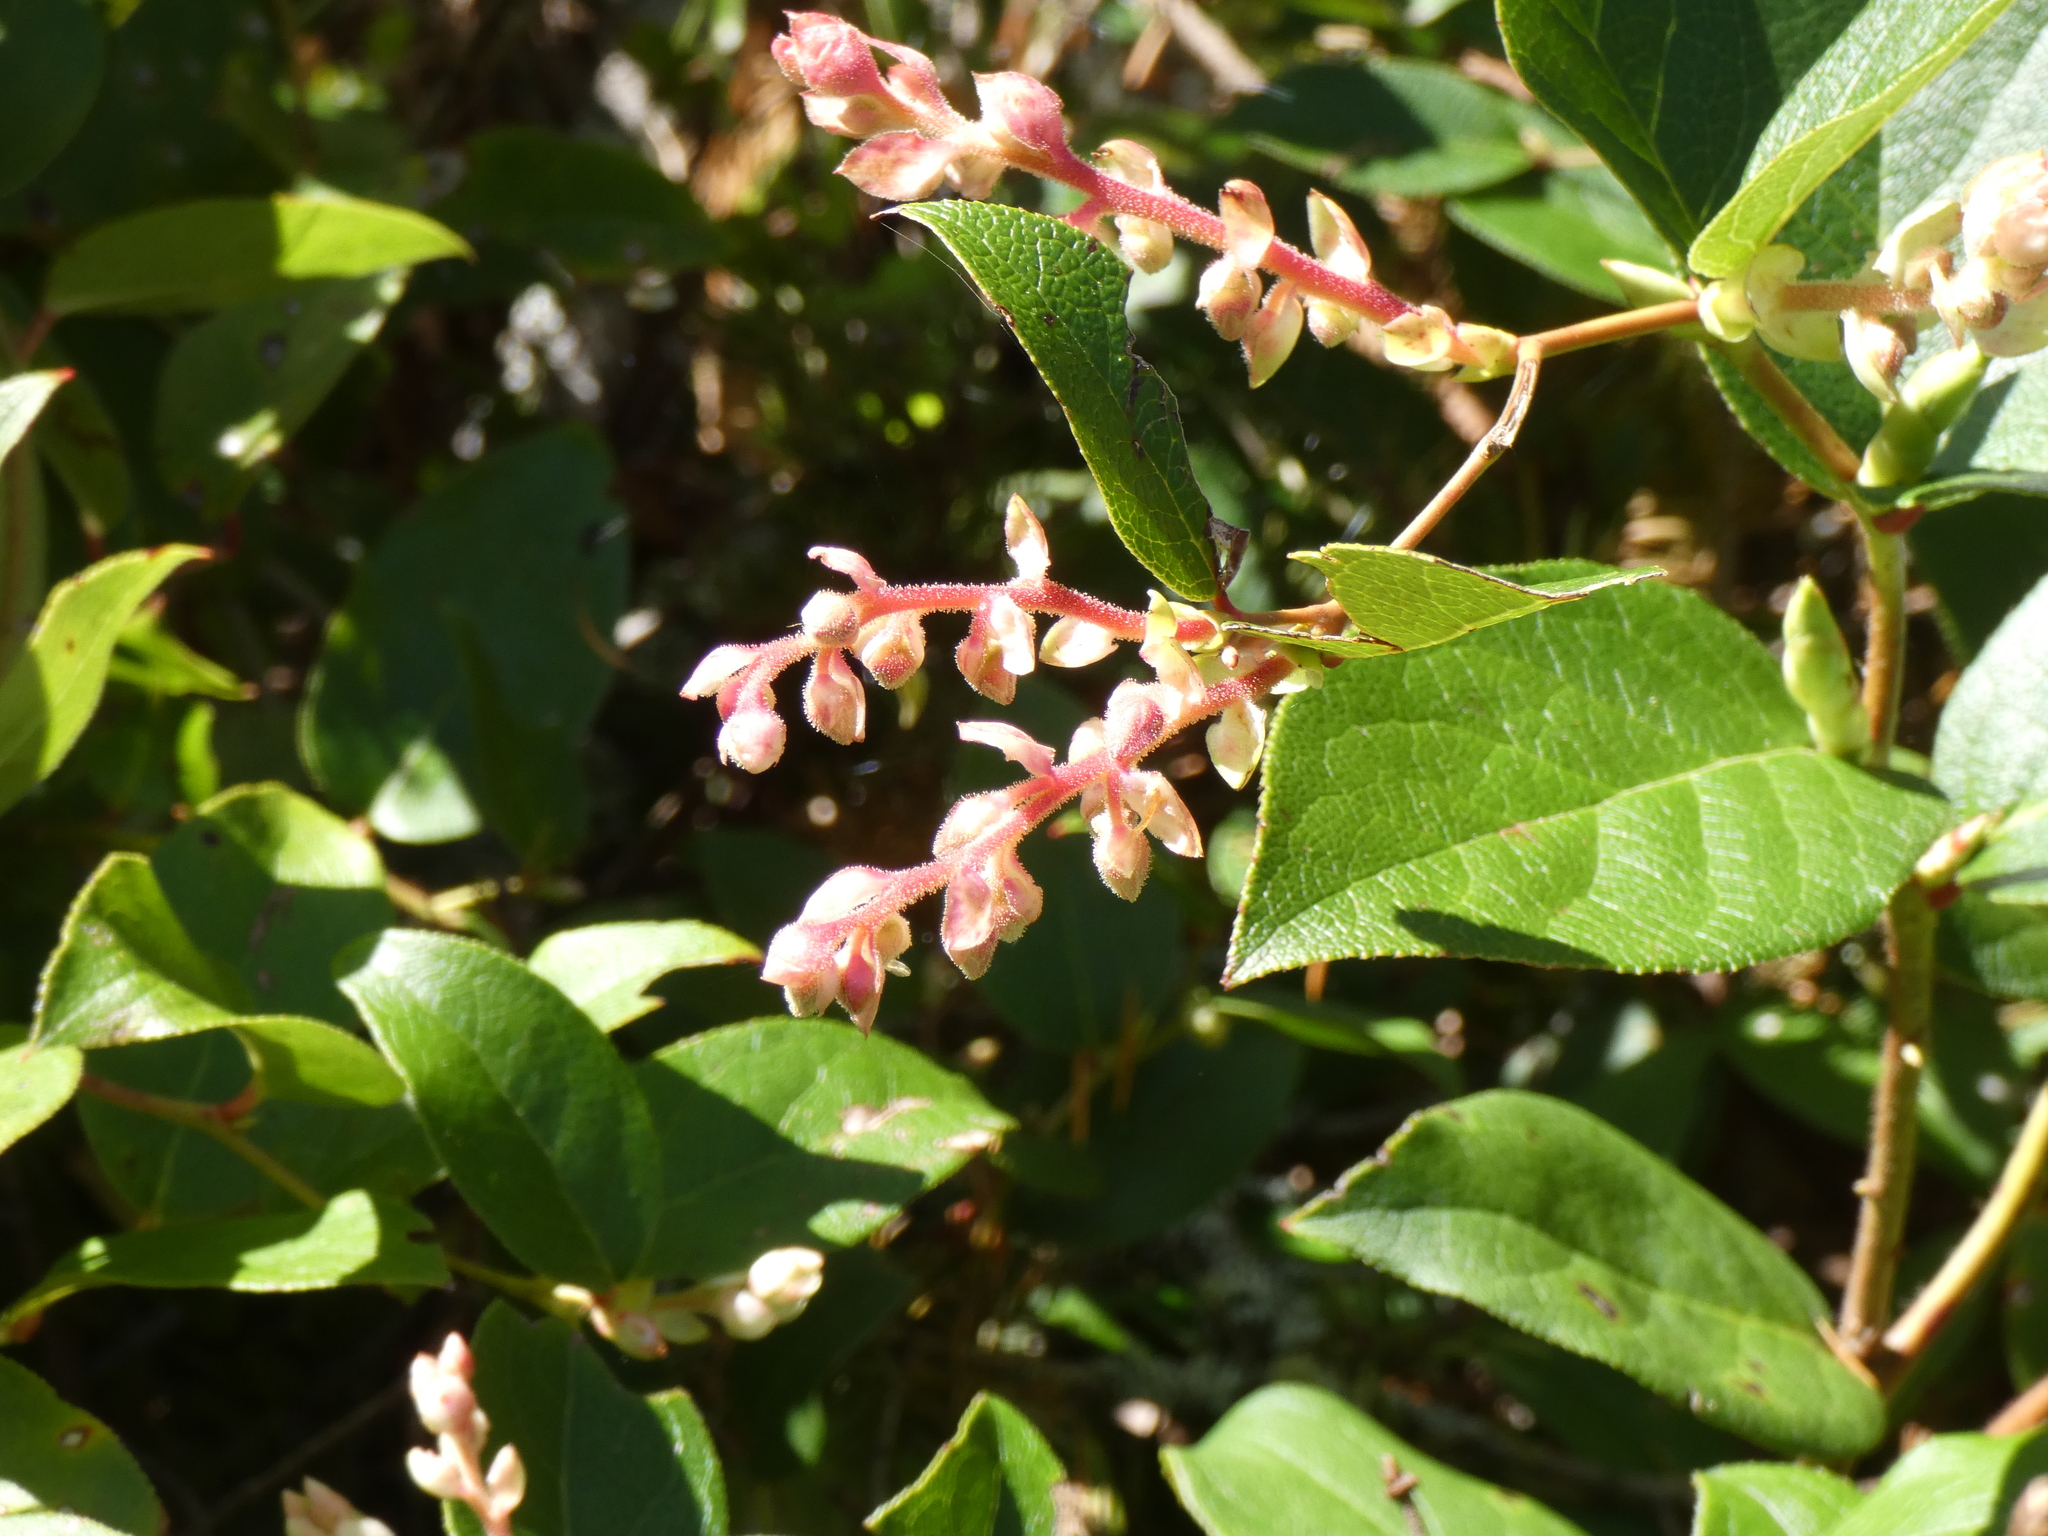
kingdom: Plantae
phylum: Tracheophyta
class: Magnoliopsida
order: Ericales
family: Ericaceae
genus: Gaultheria
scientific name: Gaultheria shallon
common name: Shallon
